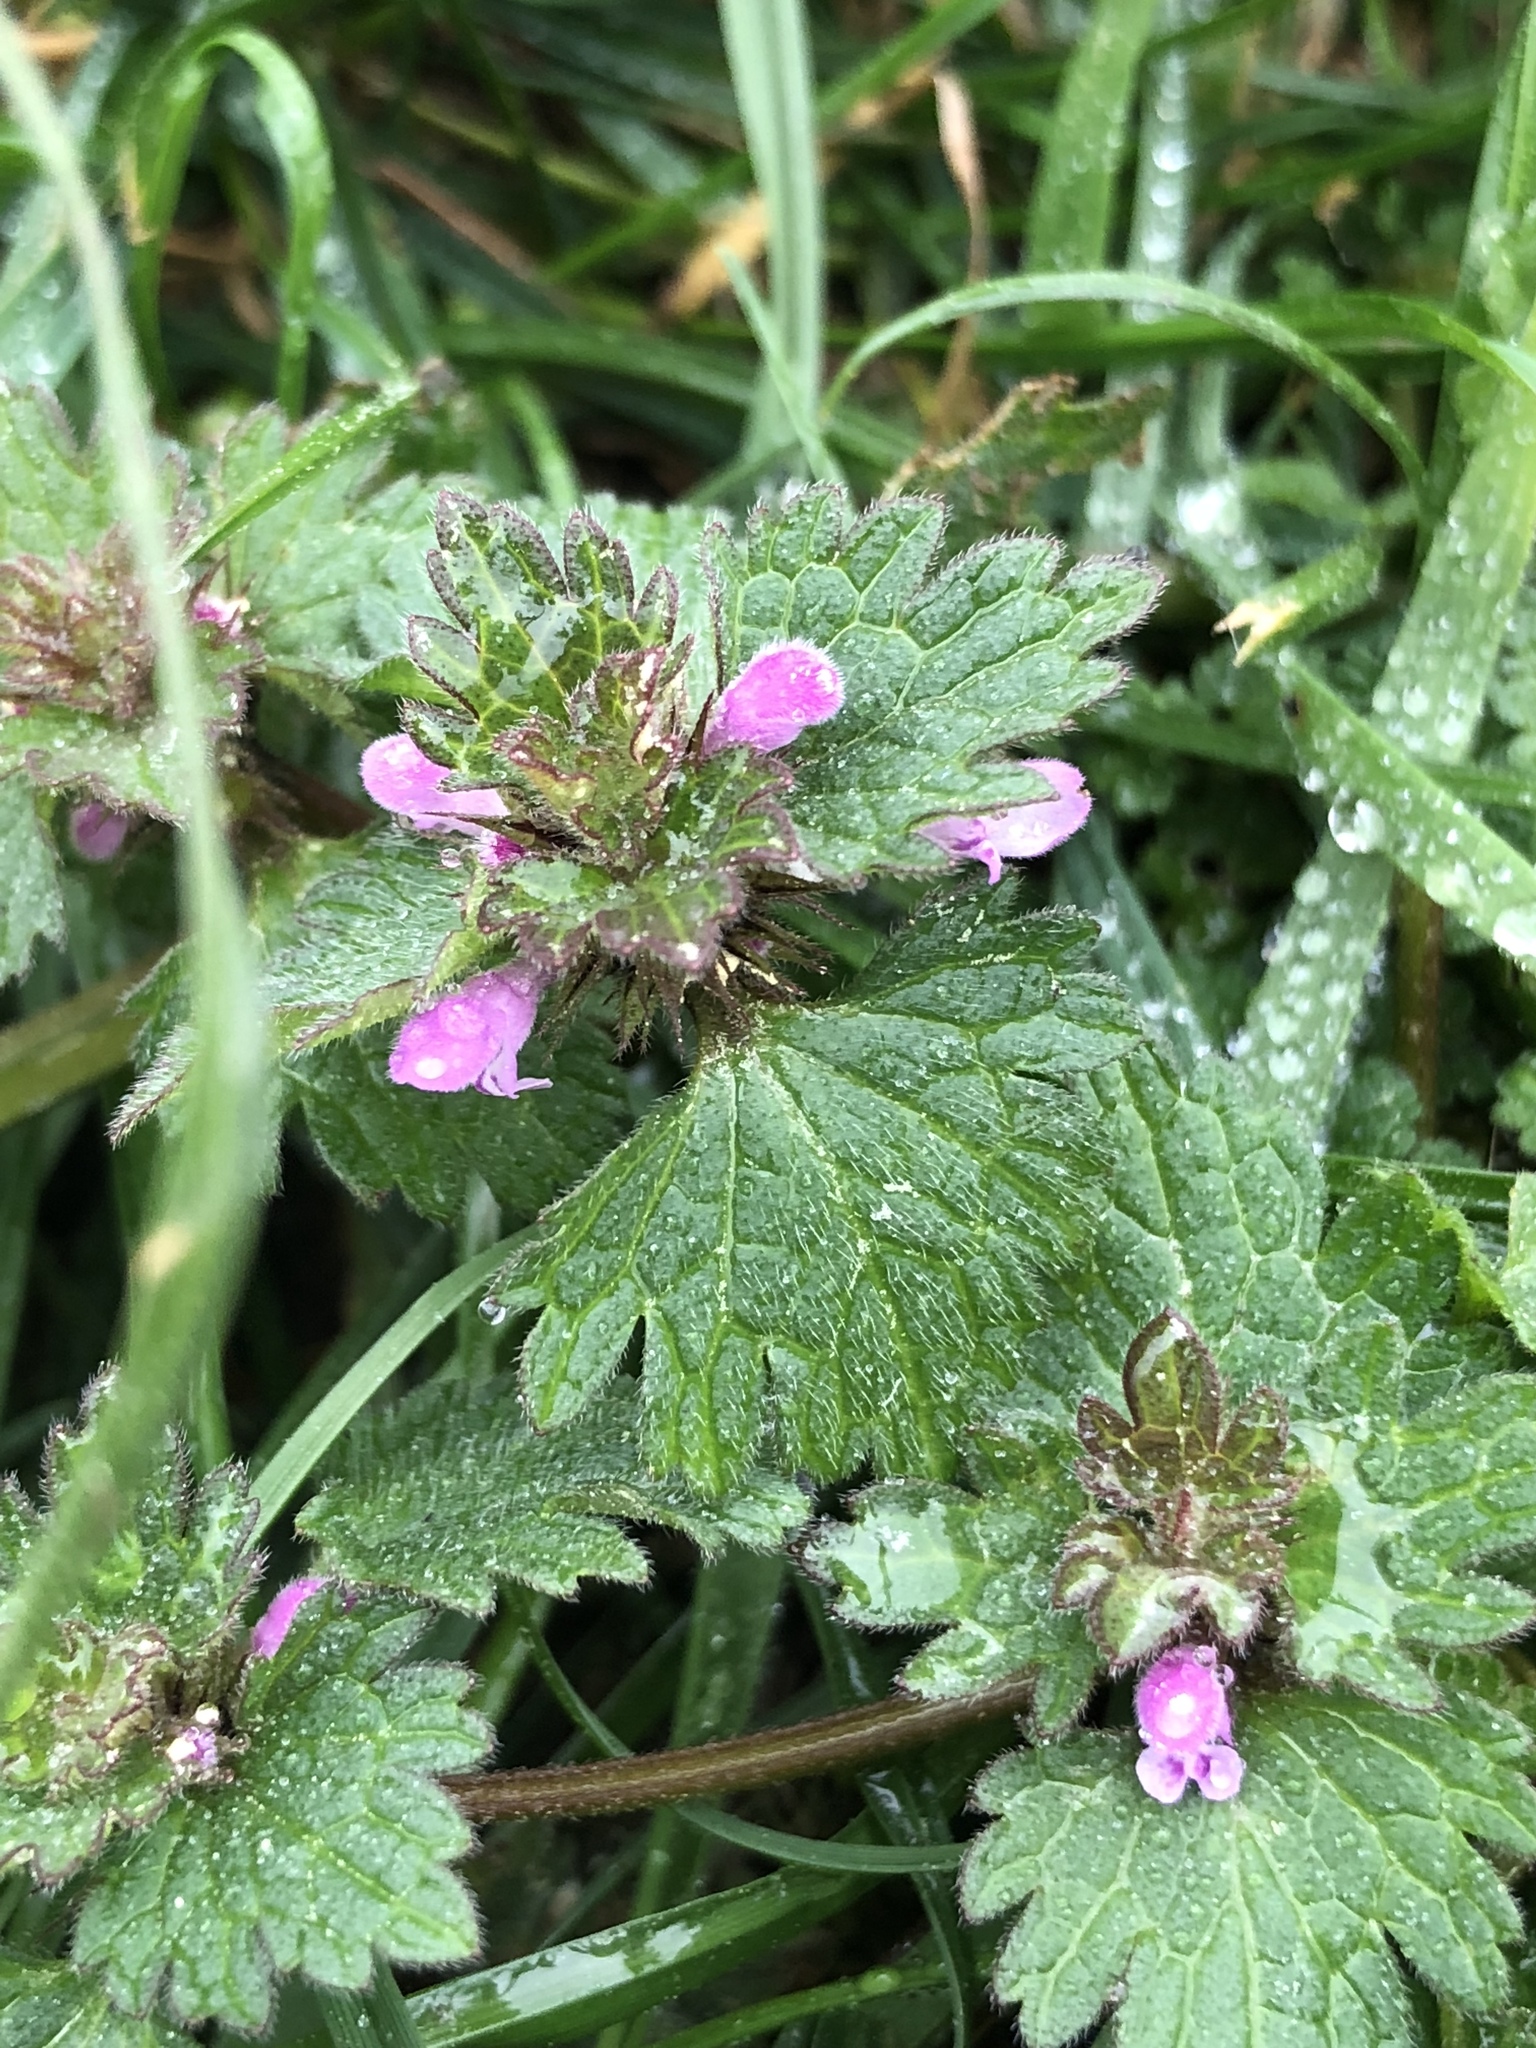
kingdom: Plantae
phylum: Tracheophyta
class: Magnoliopsida
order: Lamiales
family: Lamiaceae
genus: Lamium
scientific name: Lamium hybridum
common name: Cut-leaved dead-nettle
